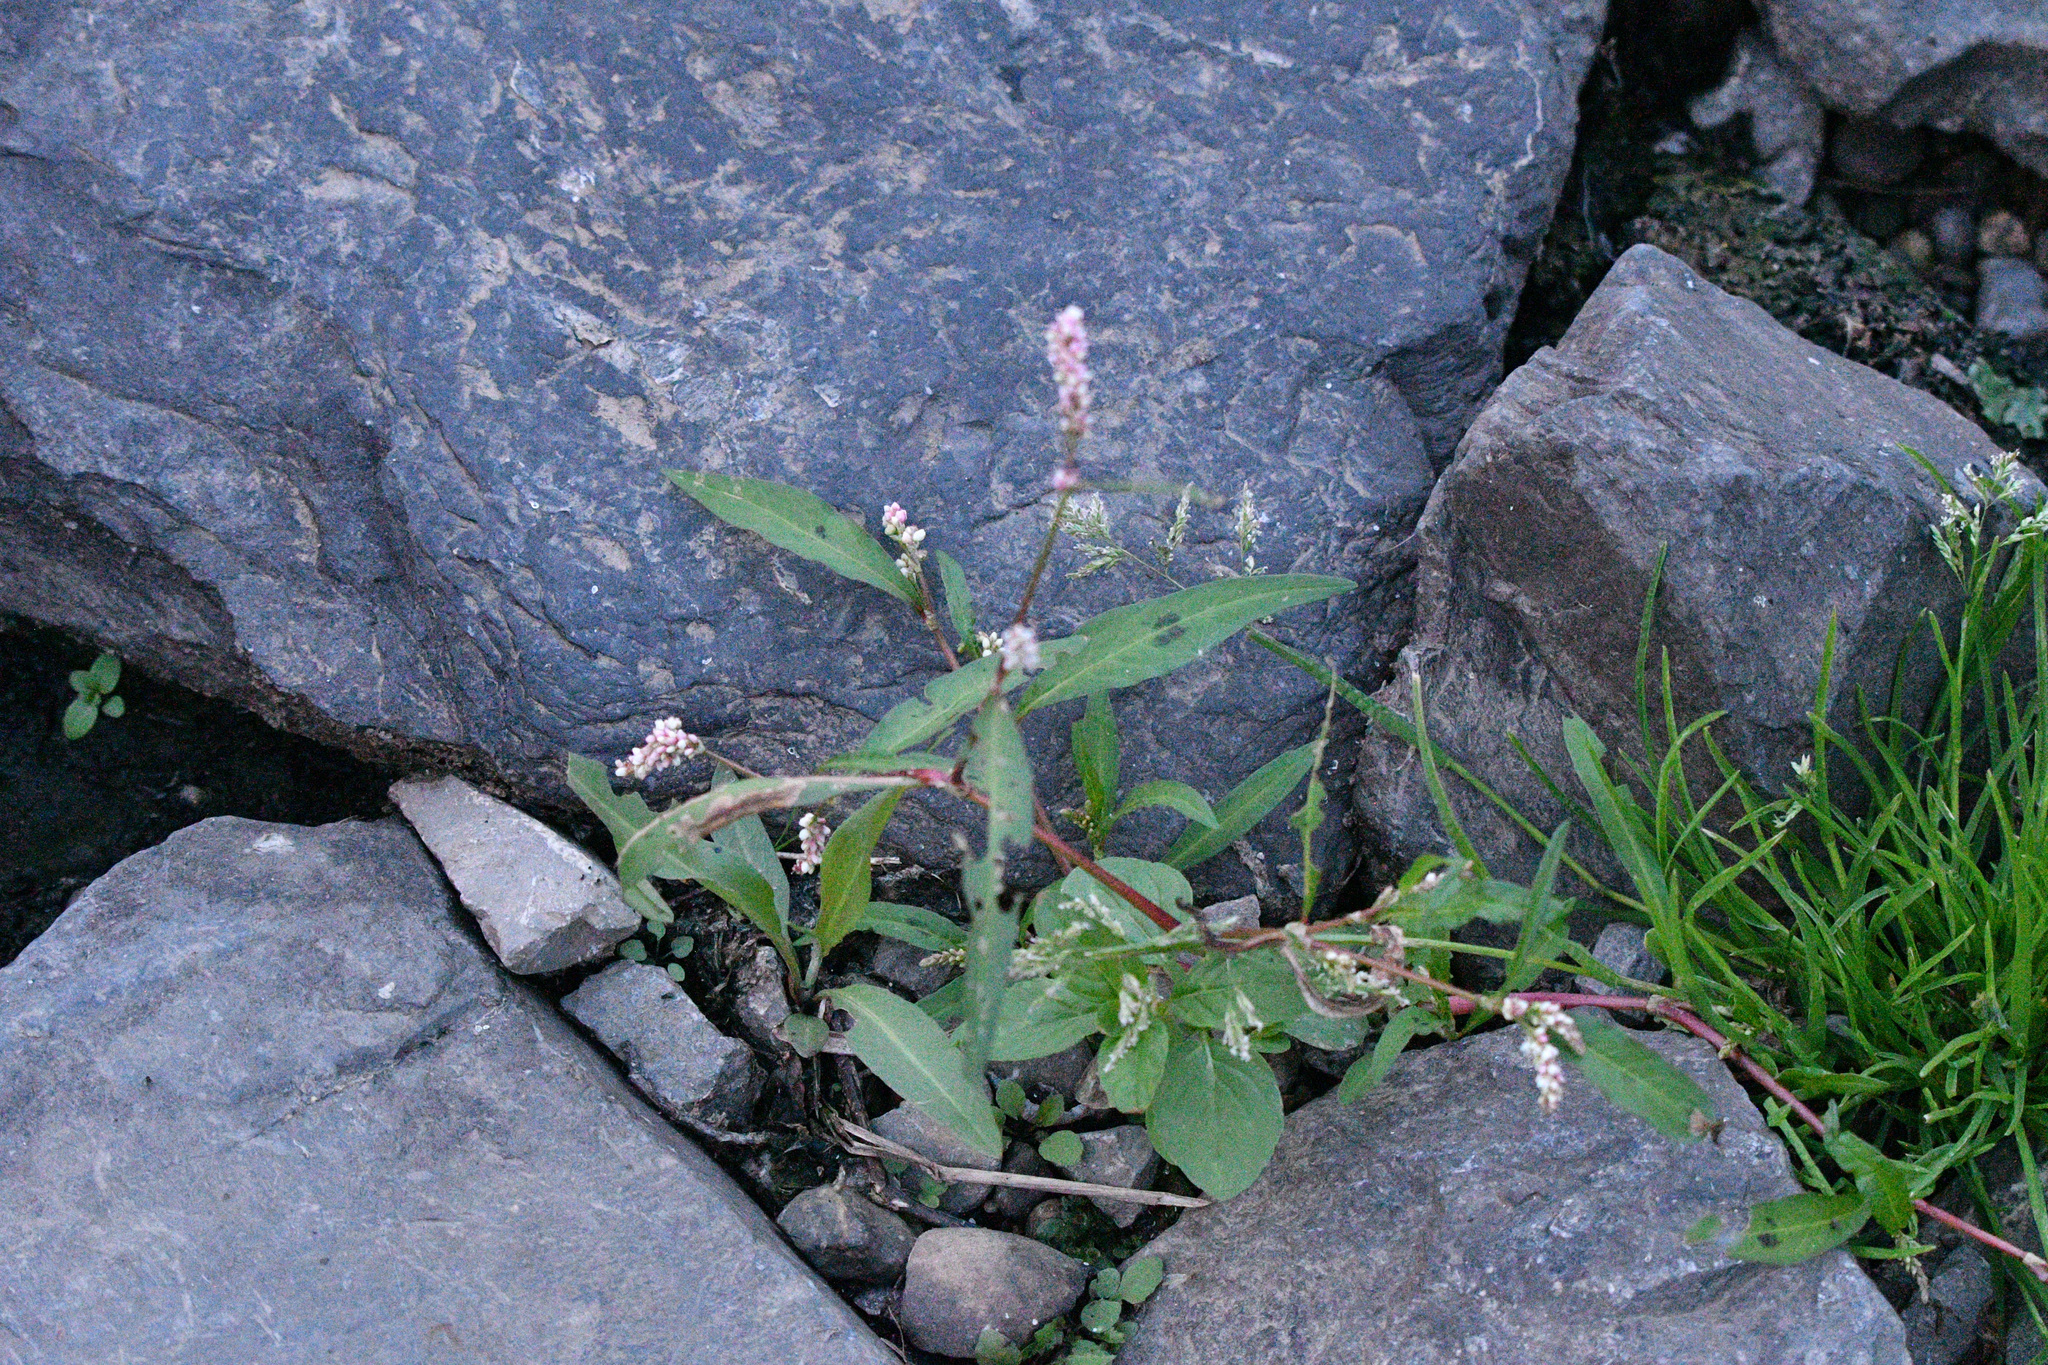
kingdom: Plantae
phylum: Tracheophyta
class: Magnoliopsida
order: Caryophyllales
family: Polygonaceae
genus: Persicaria
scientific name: Persicaria maculosa
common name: Redshank
